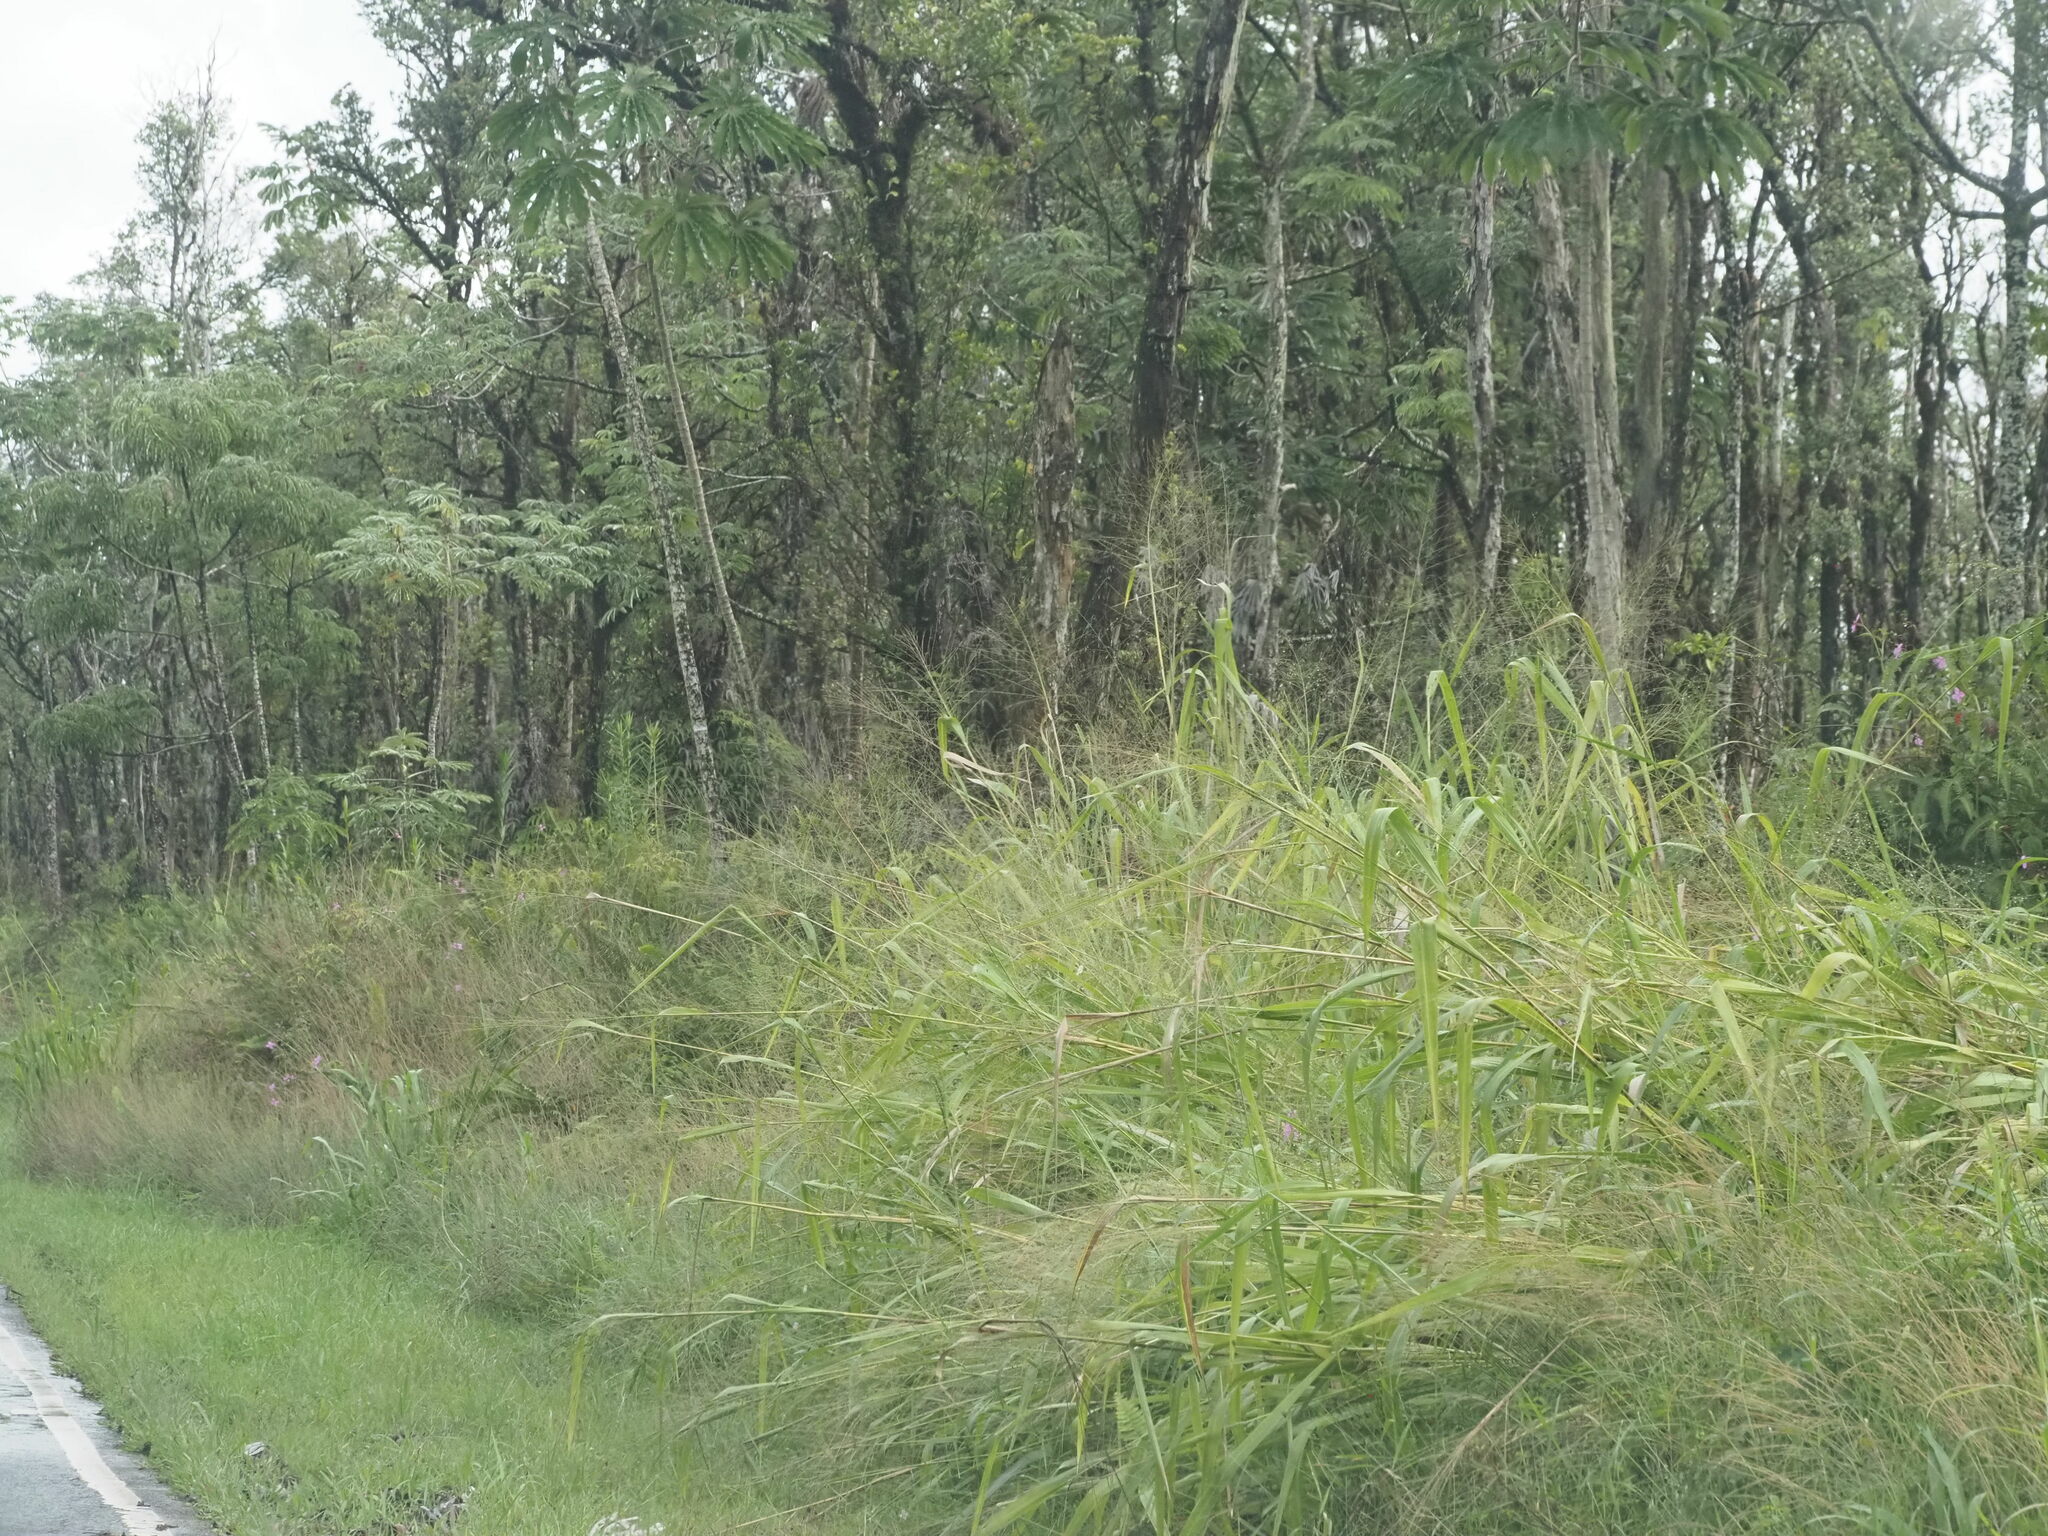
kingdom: Plantae
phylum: Tracheophyta
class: Liliopsida
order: Poales
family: Poaceae
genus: Megathyrsus
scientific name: Megathyrsus maximus
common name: Guineagrass
